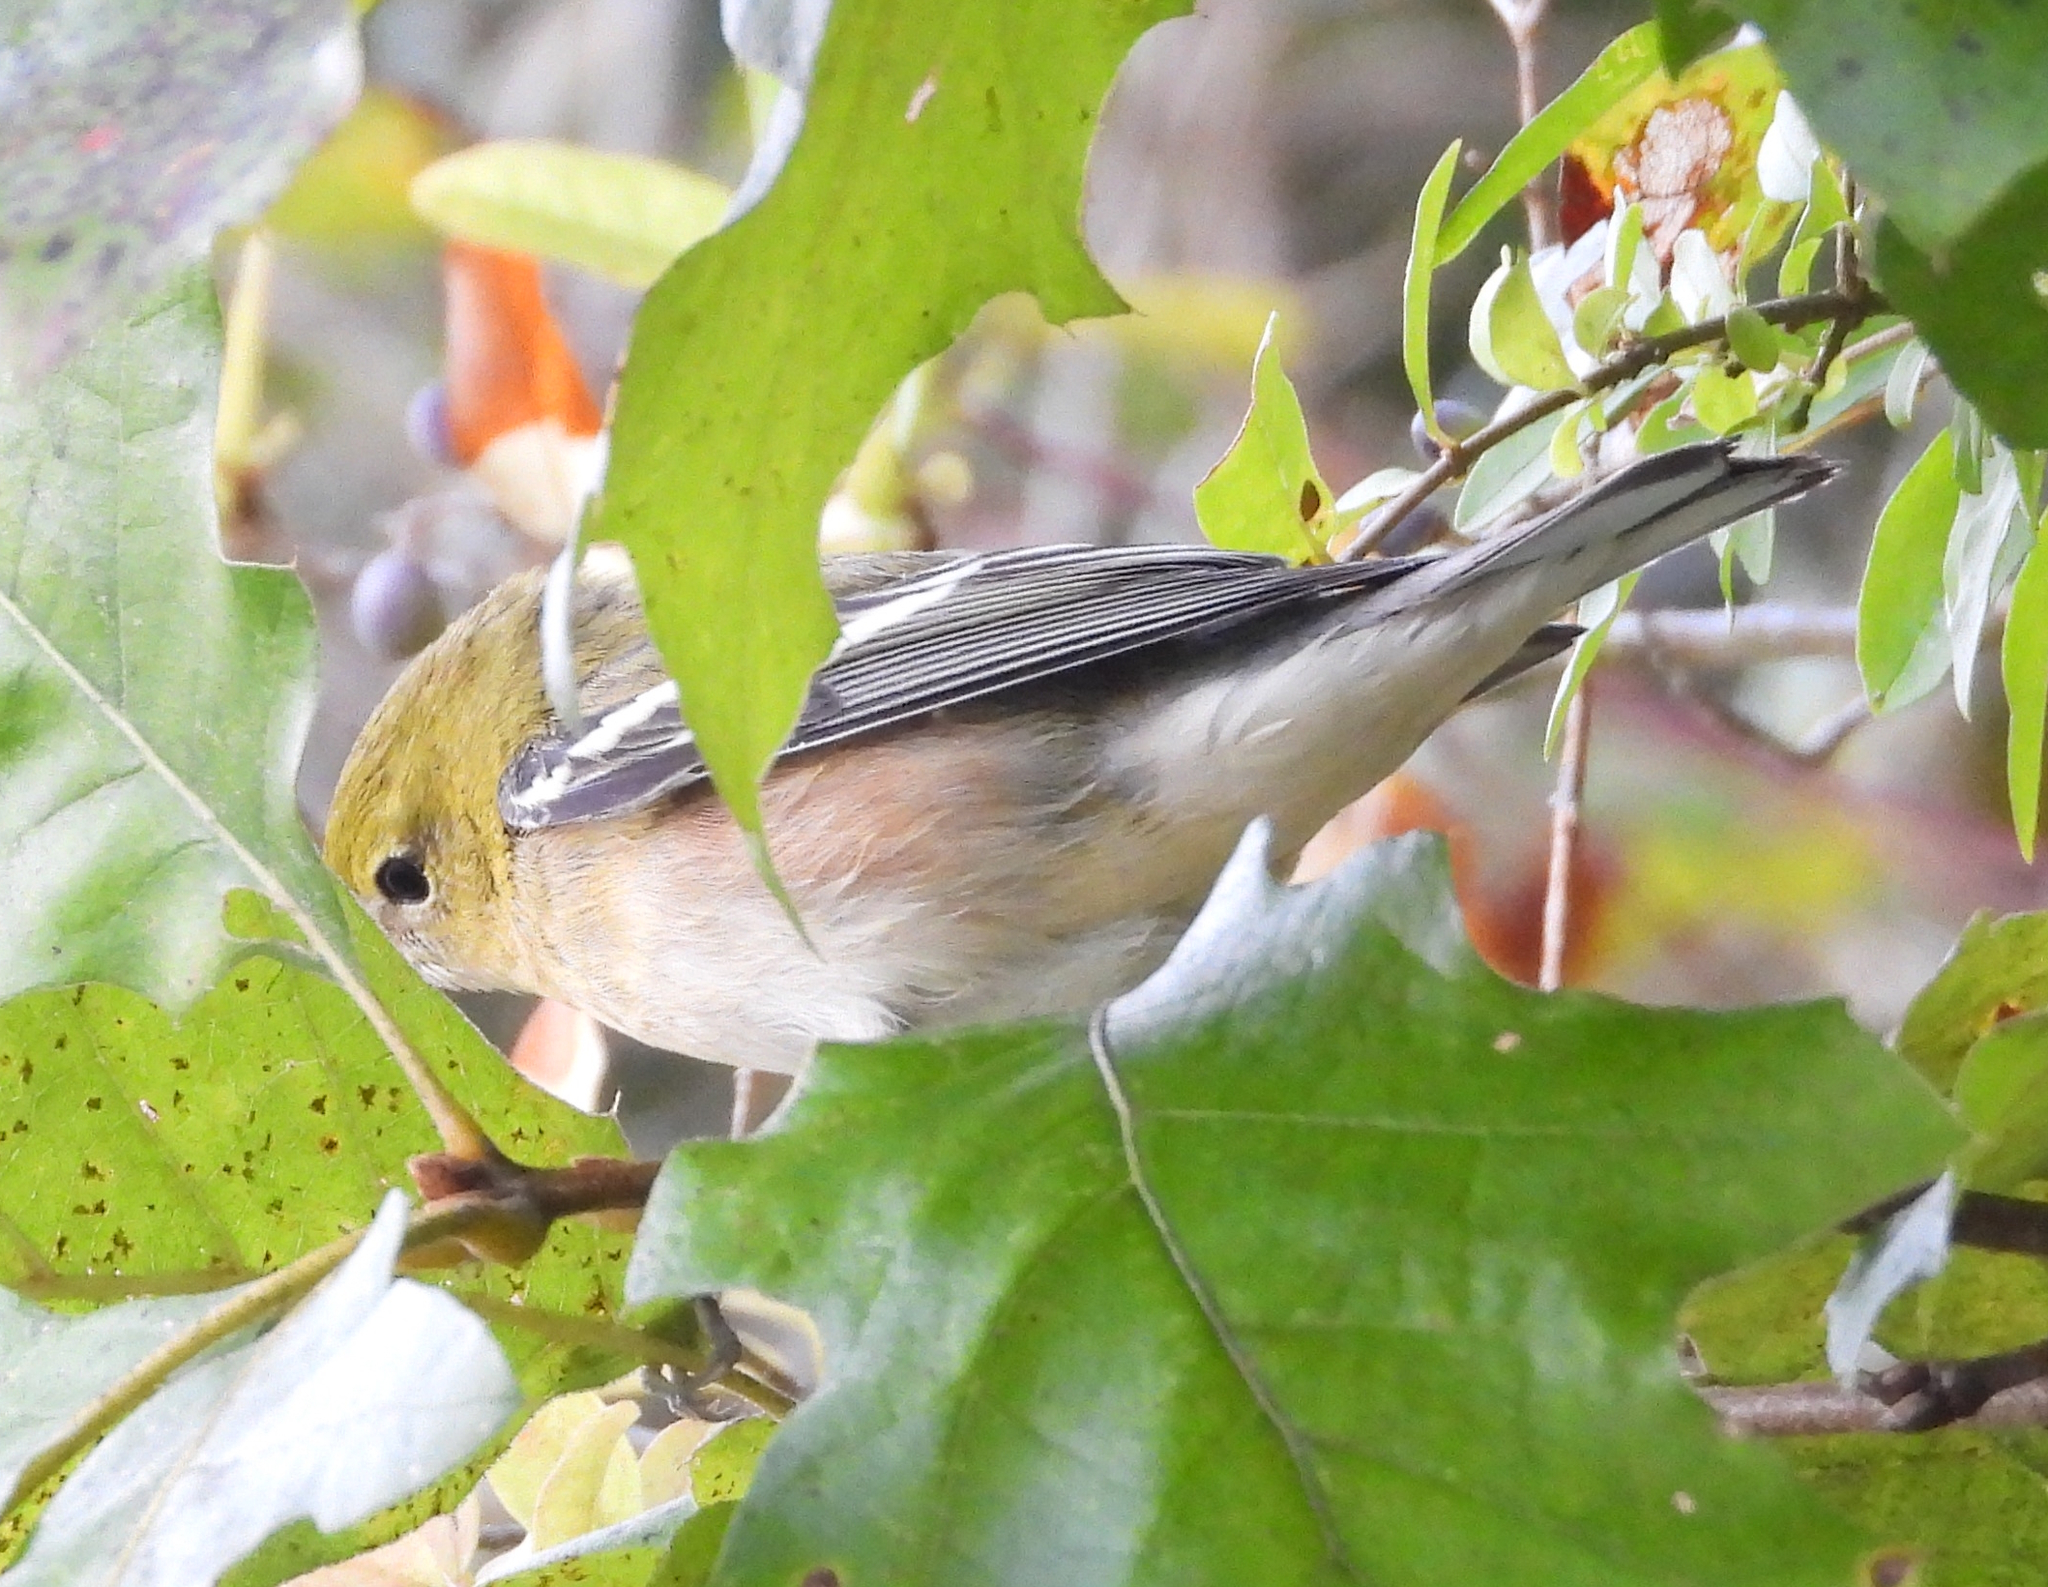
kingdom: Animalia
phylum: Chordata
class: Aves
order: Passeriformes
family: Parulidae
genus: Setophaga
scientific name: Setophaga castanea
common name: Bay-breasted warbler
